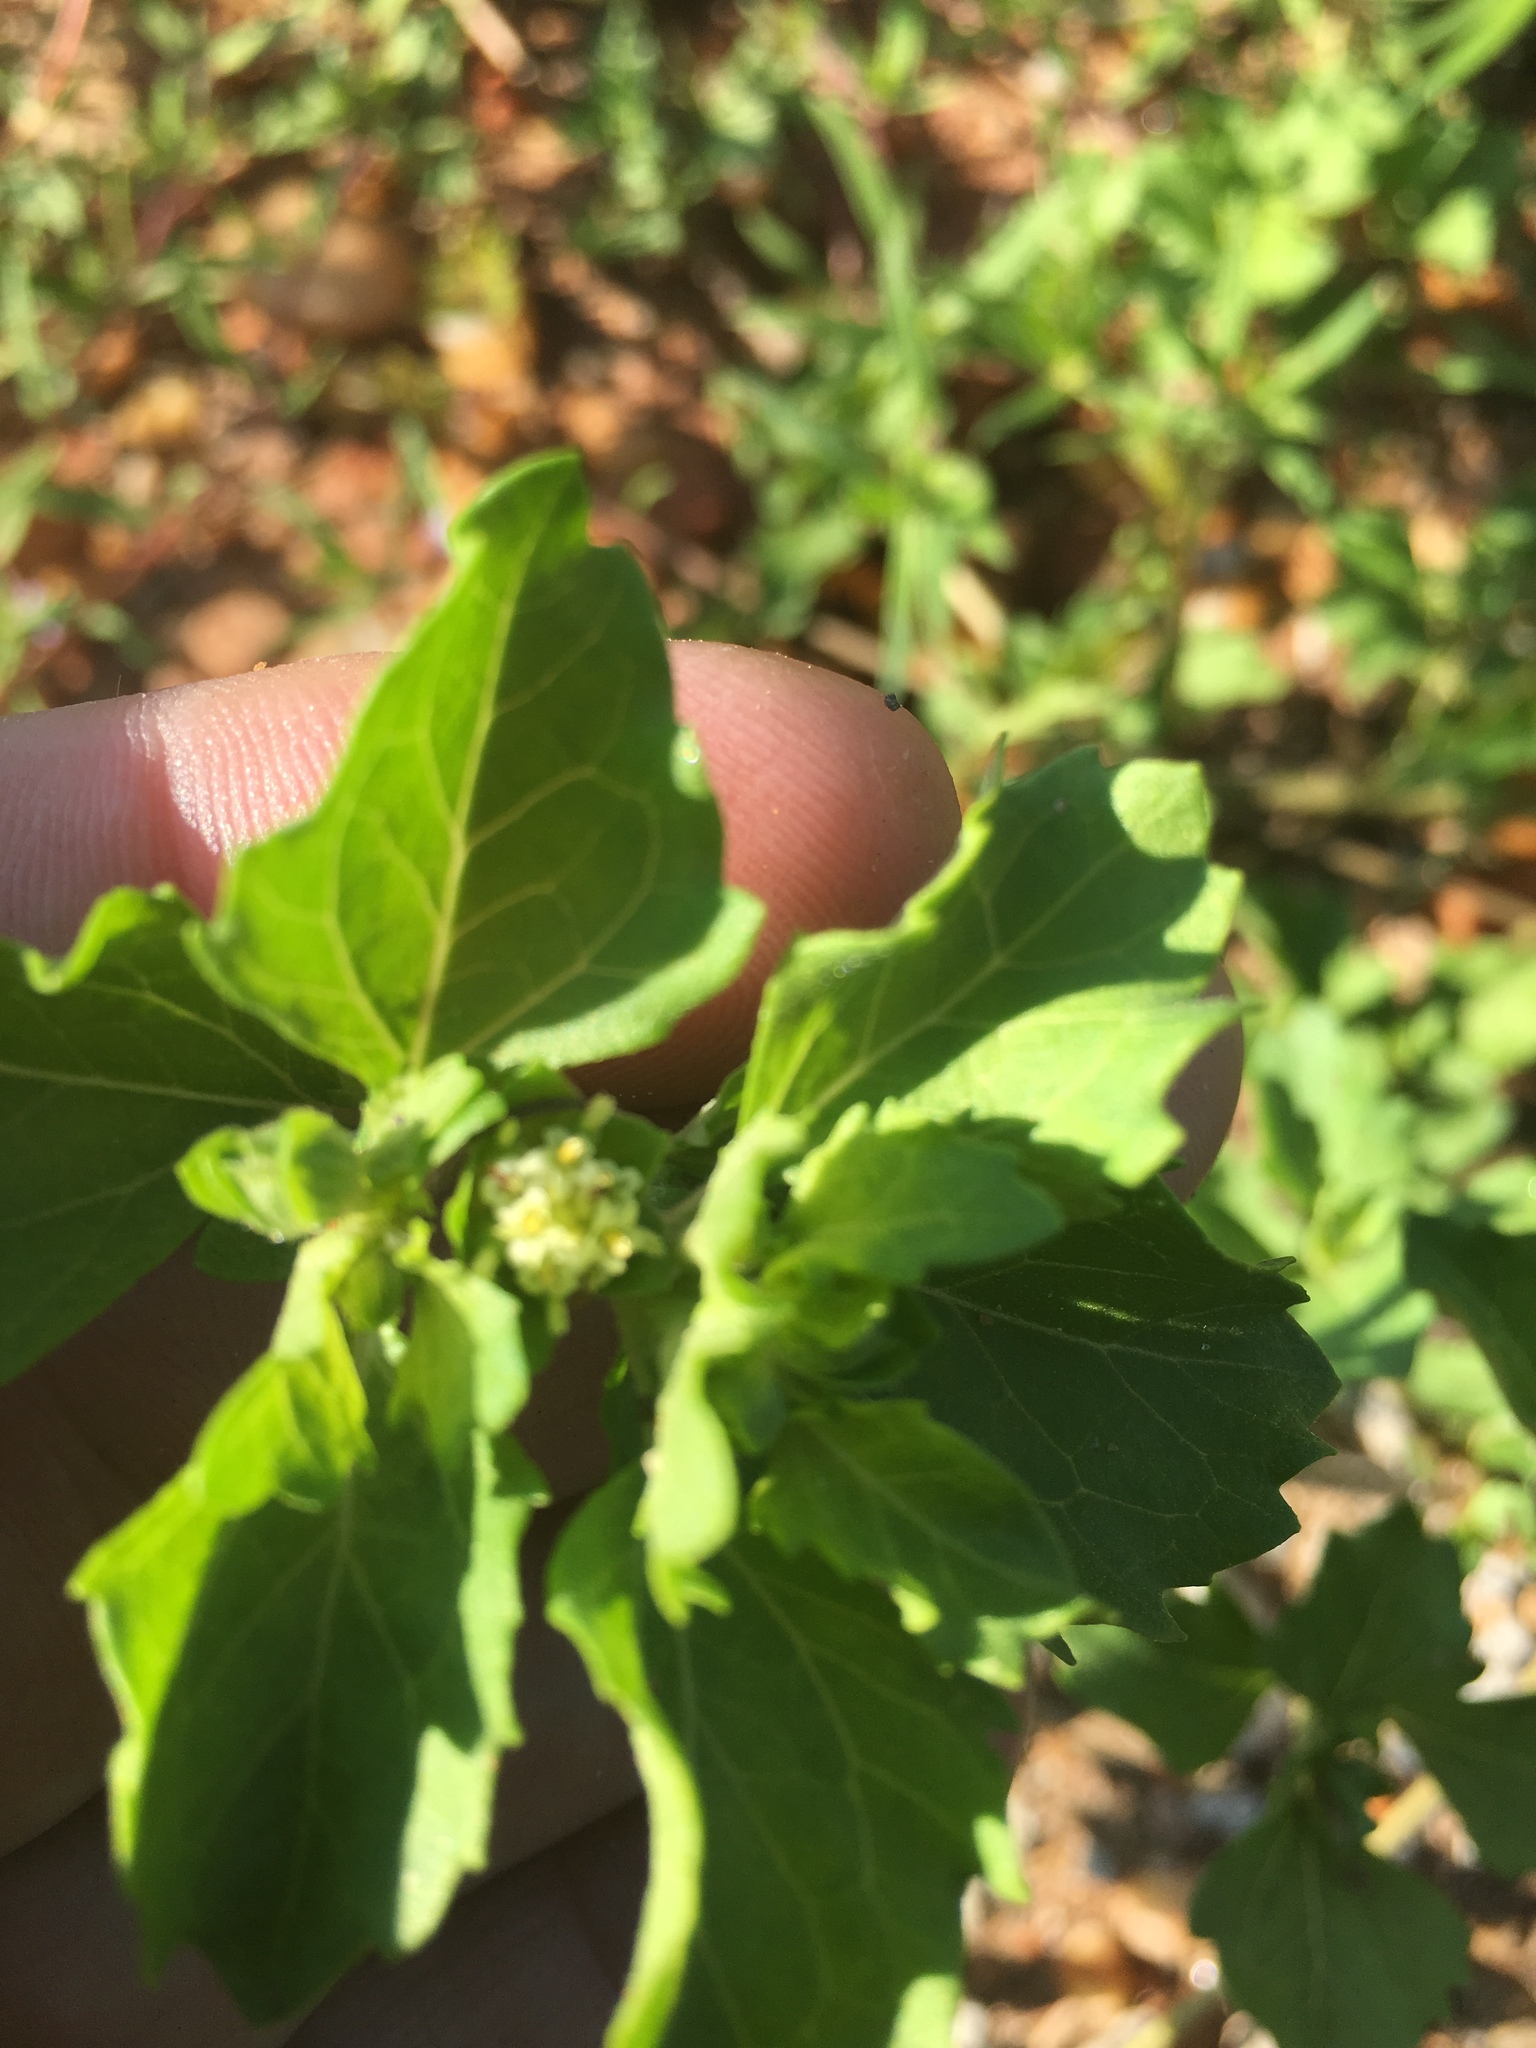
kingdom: Plantae
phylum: Tracheophyta
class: Magnoliopsida
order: Asterales
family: Asteraceae
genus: Acanthospermum
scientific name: Acanthospermum australe
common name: Paraguayan starbur
